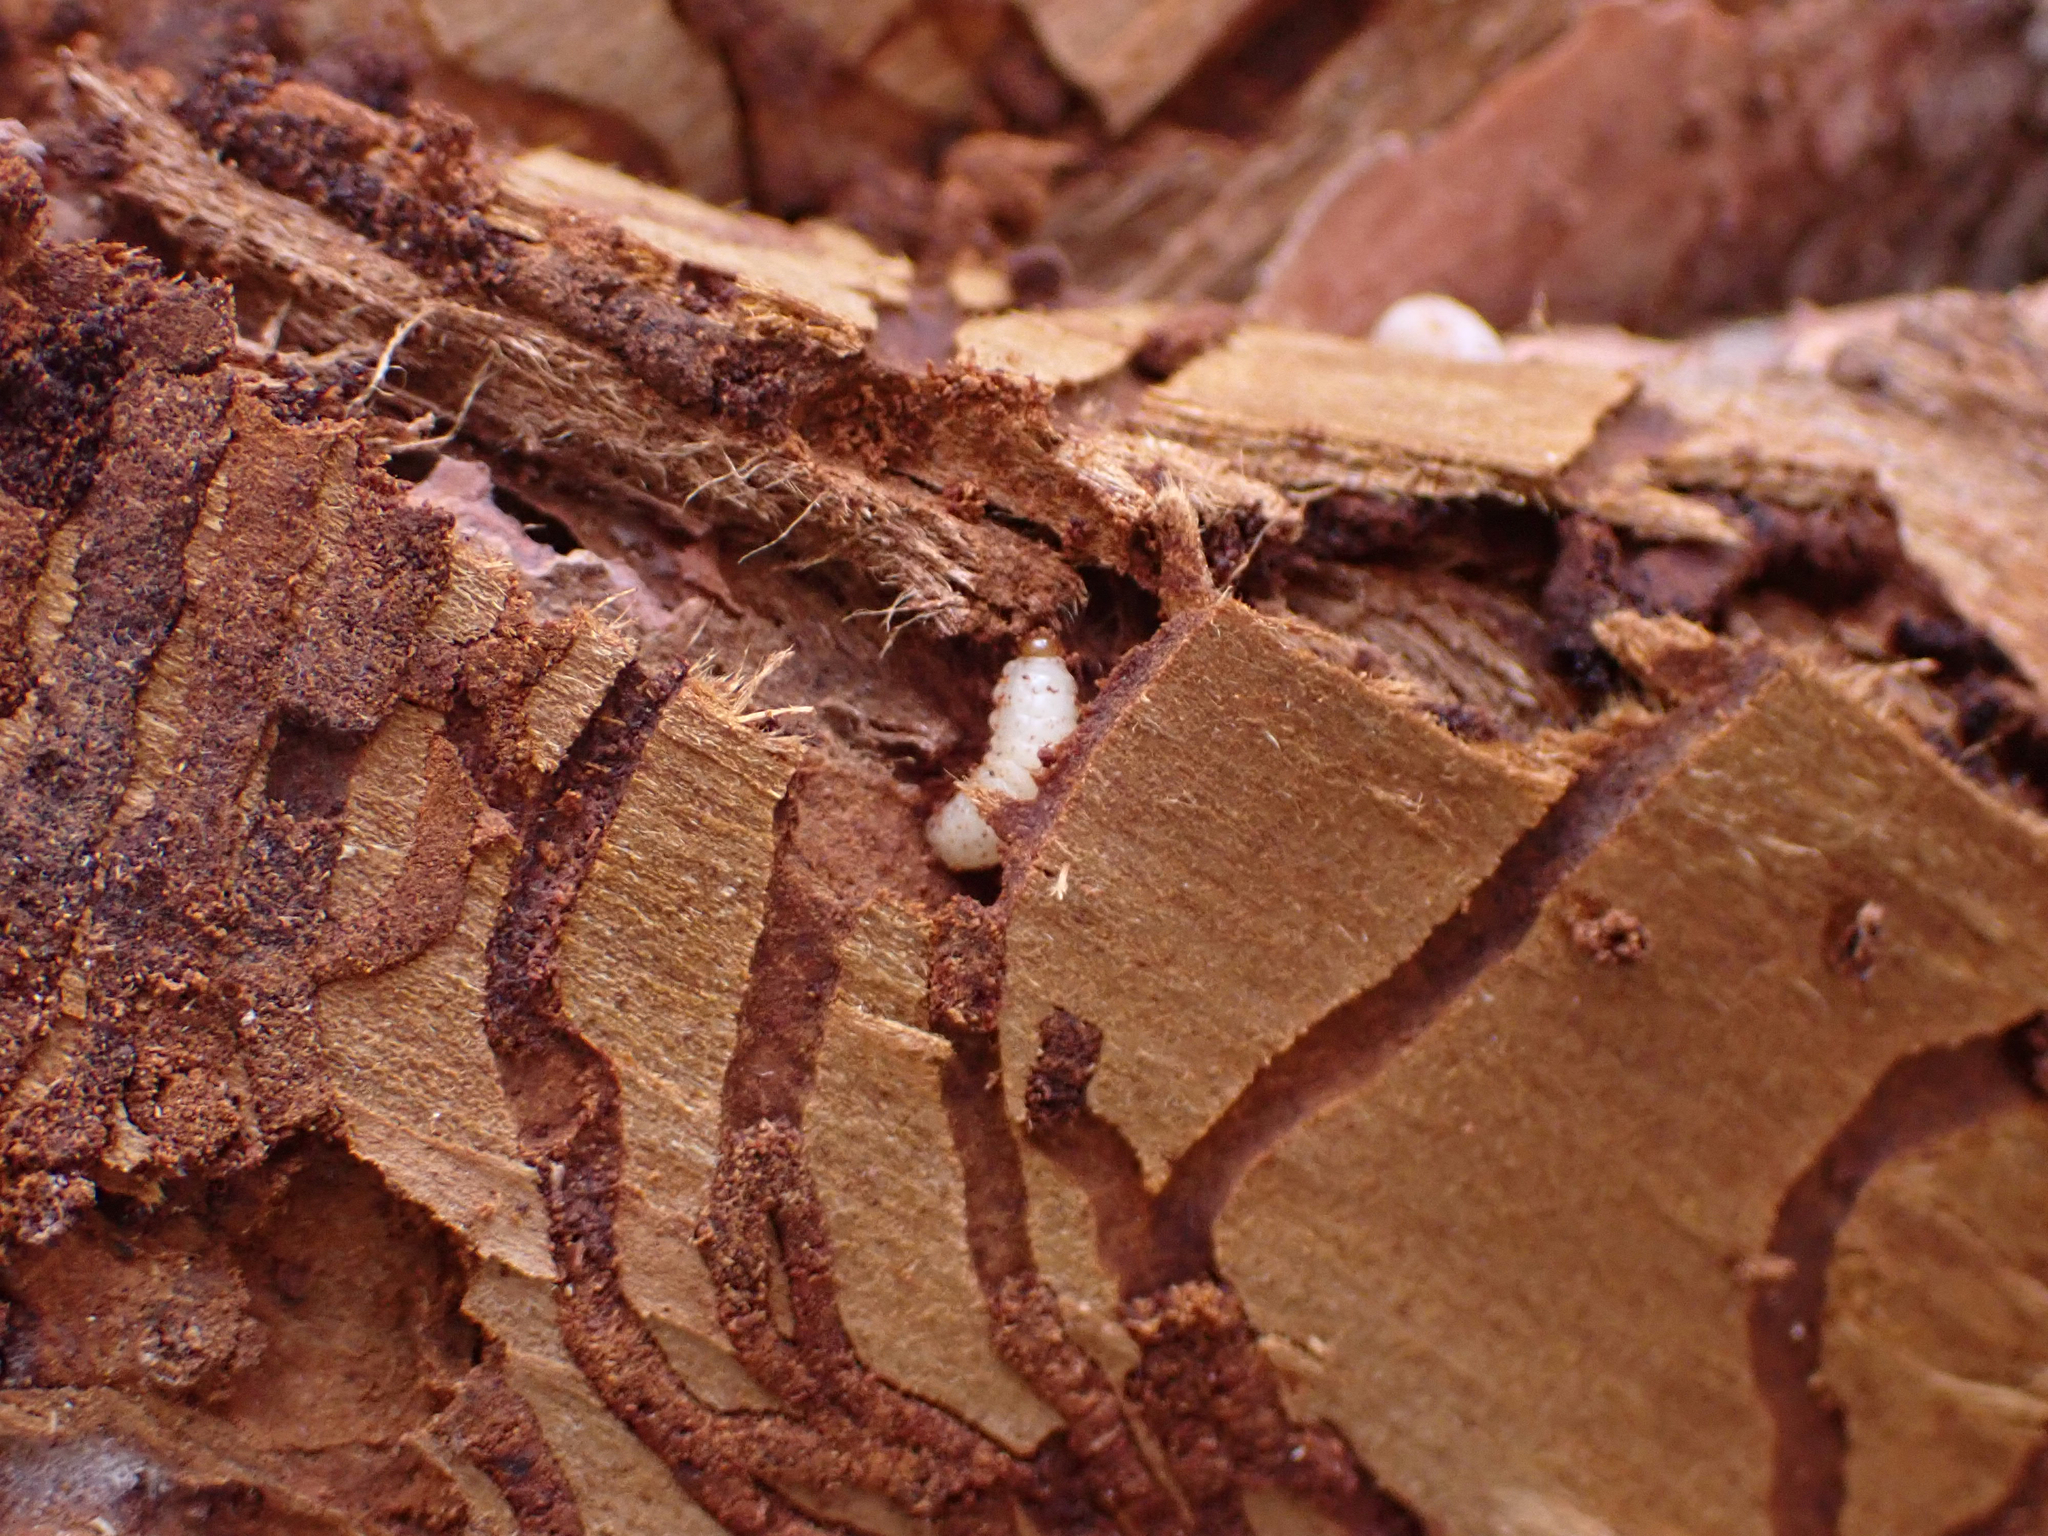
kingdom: Animalia
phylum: Arthropoda
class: Insecta
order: Coleoptera
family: Curculionidae
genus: Dendroctonus
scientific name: Dendroctonus rufipennis
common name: Spruce beetle
